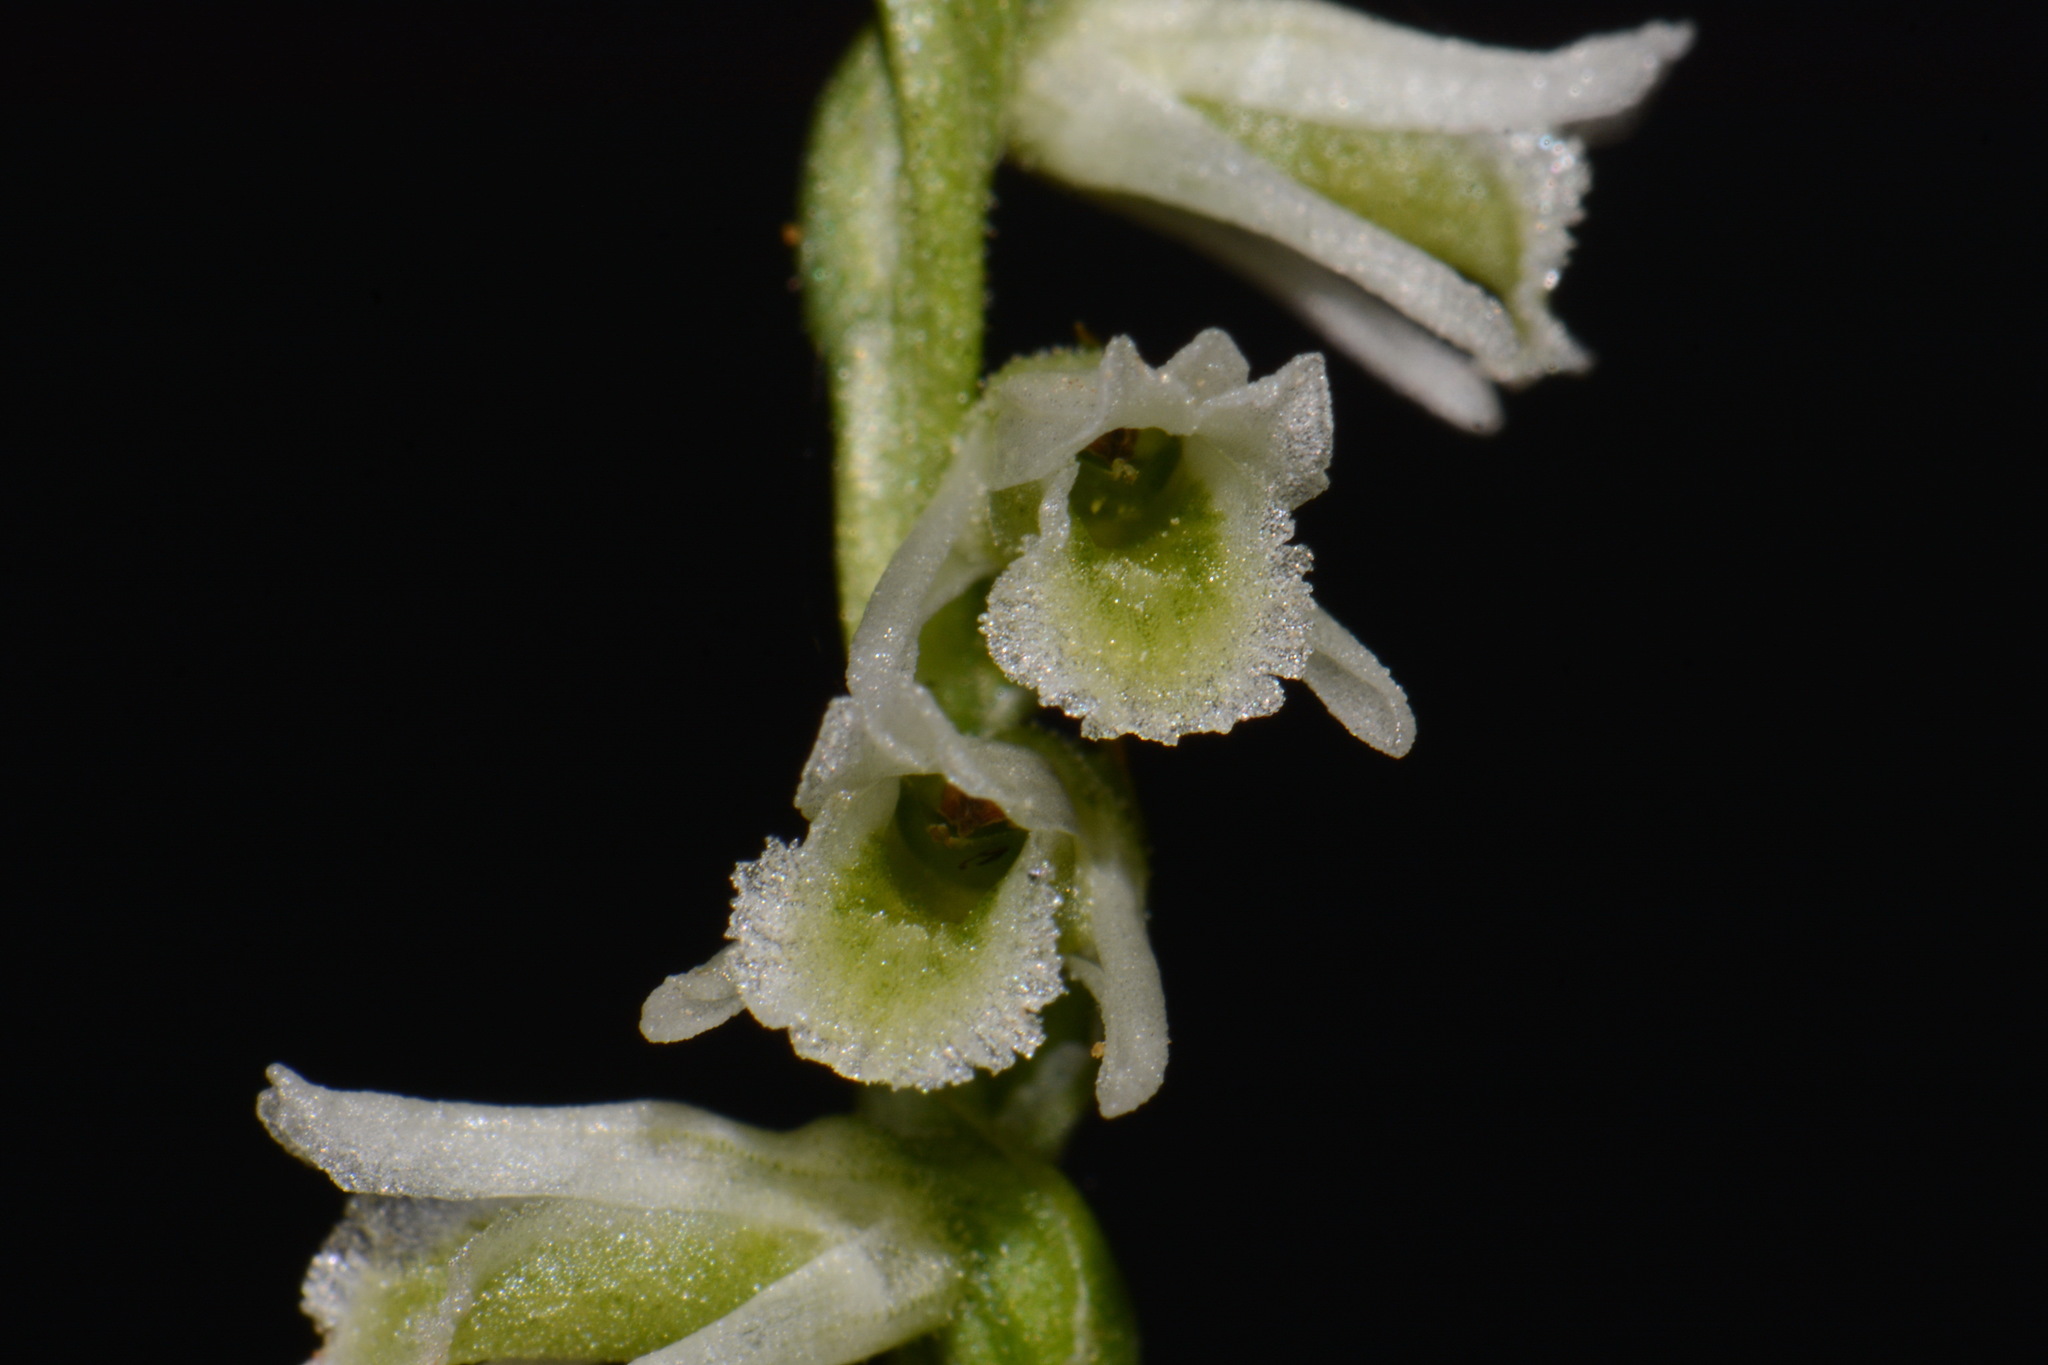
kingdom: Plantae
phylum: Tracheophyta
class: Liliopsida
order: Asparagales
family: Orchidaceae
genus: Spiranthes
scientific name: Spiranthes lacera
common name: Northern slender ladies'-tresses
